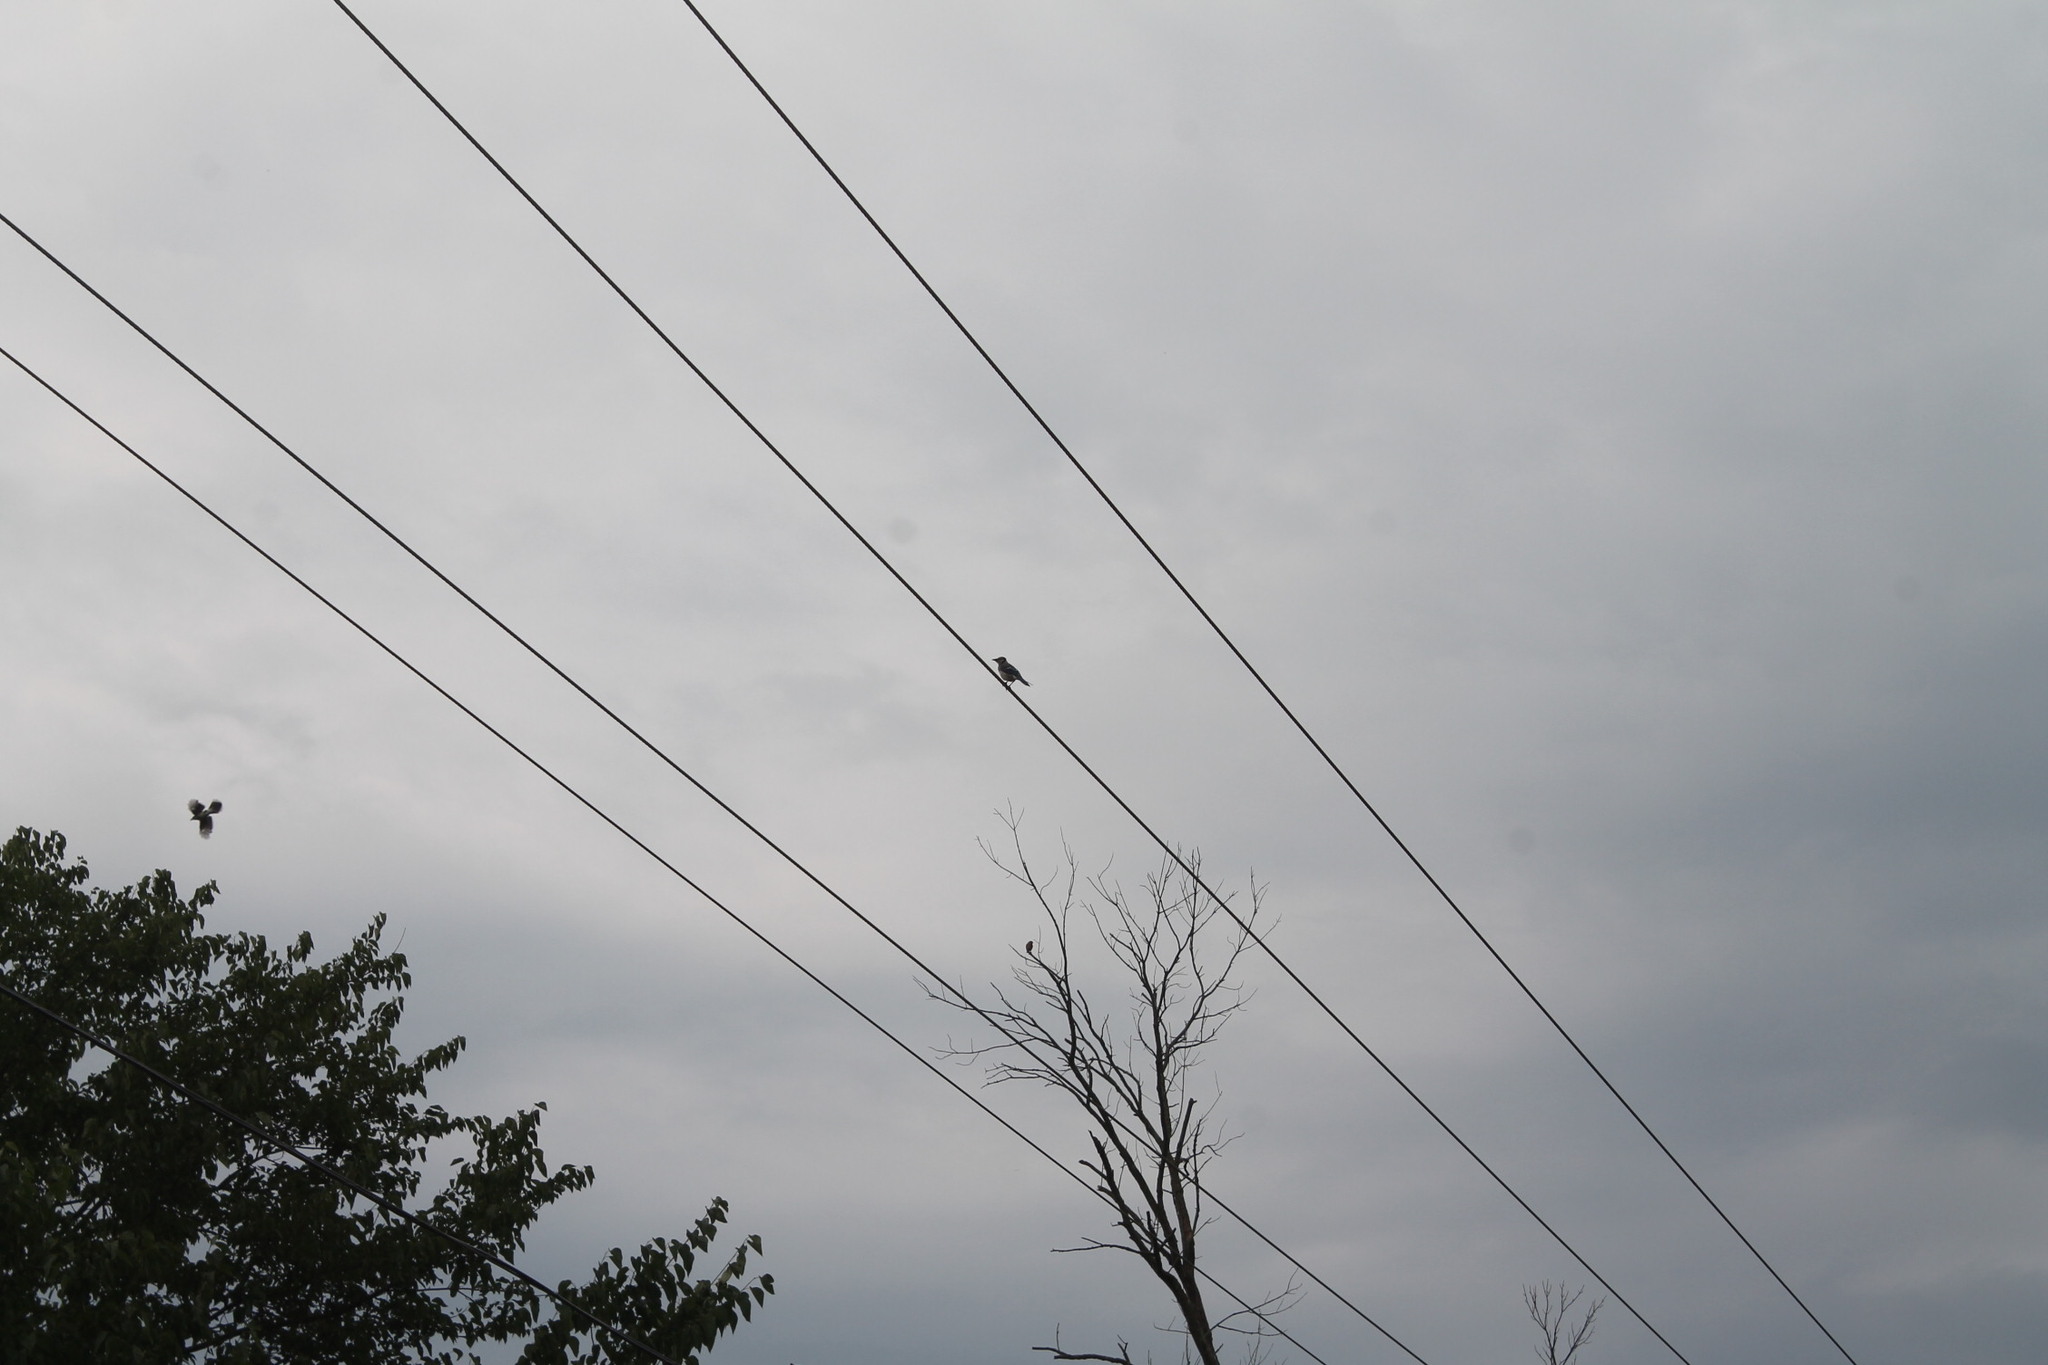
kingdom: Animalia
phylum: Chordata
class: Aves
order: Passeriformes
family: Corvidae
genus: Cyanocitta
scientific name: Cyanocitta cristata
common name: Blue jay
